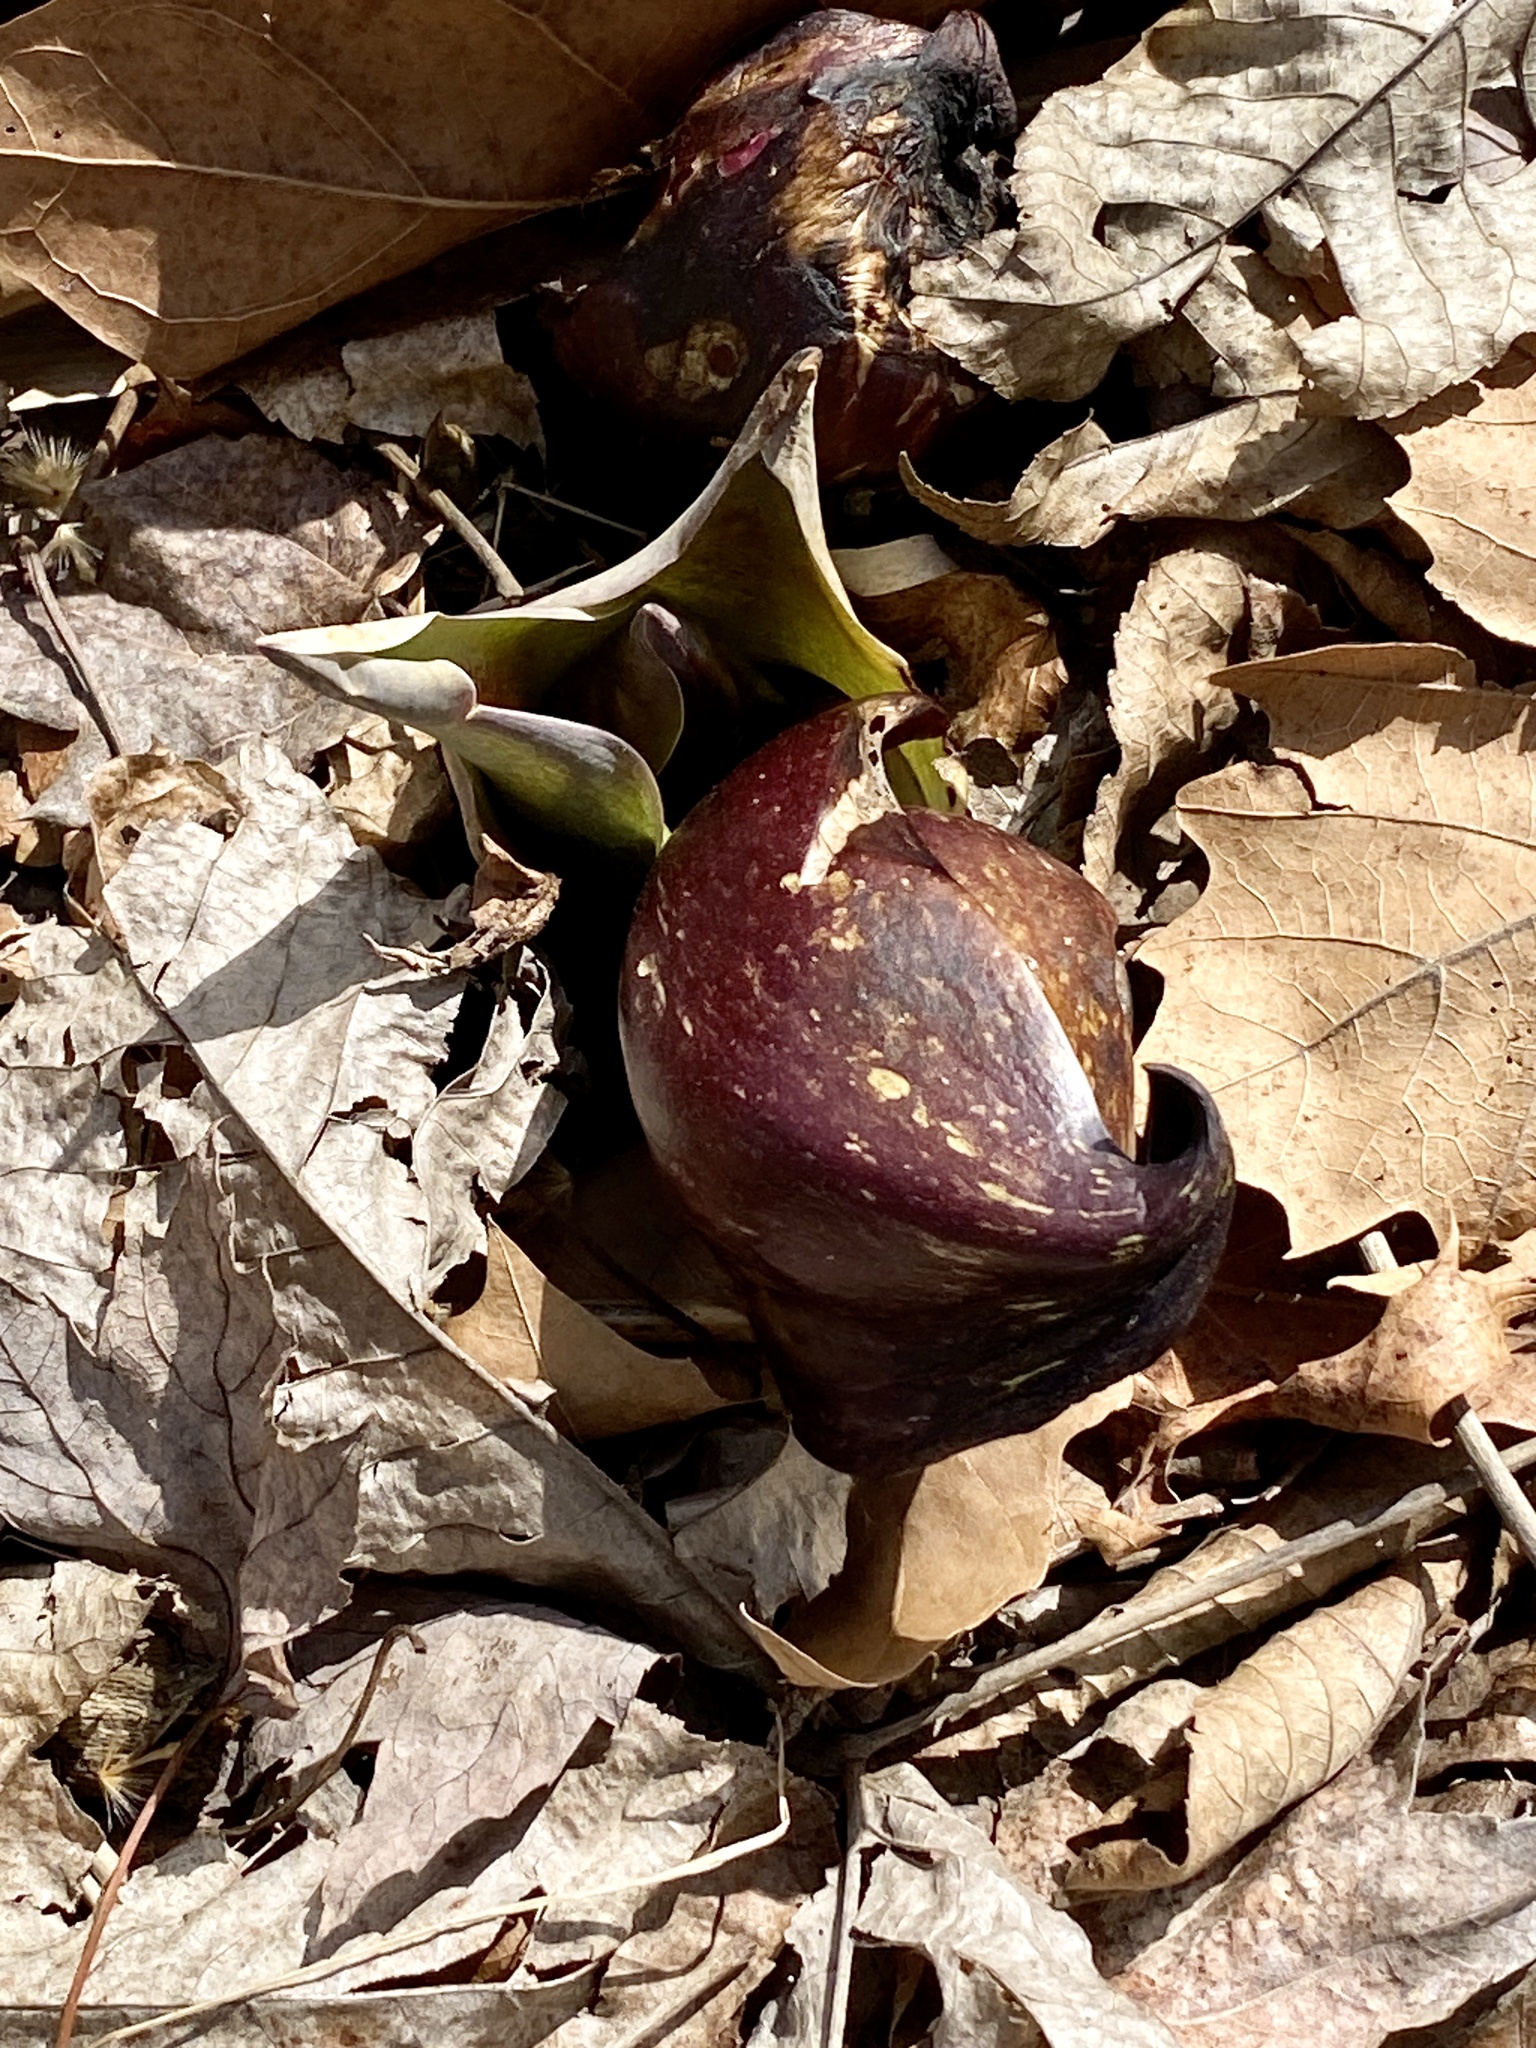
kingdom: Plantae
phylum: Tracheophyta
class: Liliopsida
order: Alismatales
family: Araceae
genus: Symplocarpus
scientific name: Symplocarpus foetidus
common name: Eastern skunk cabbage
